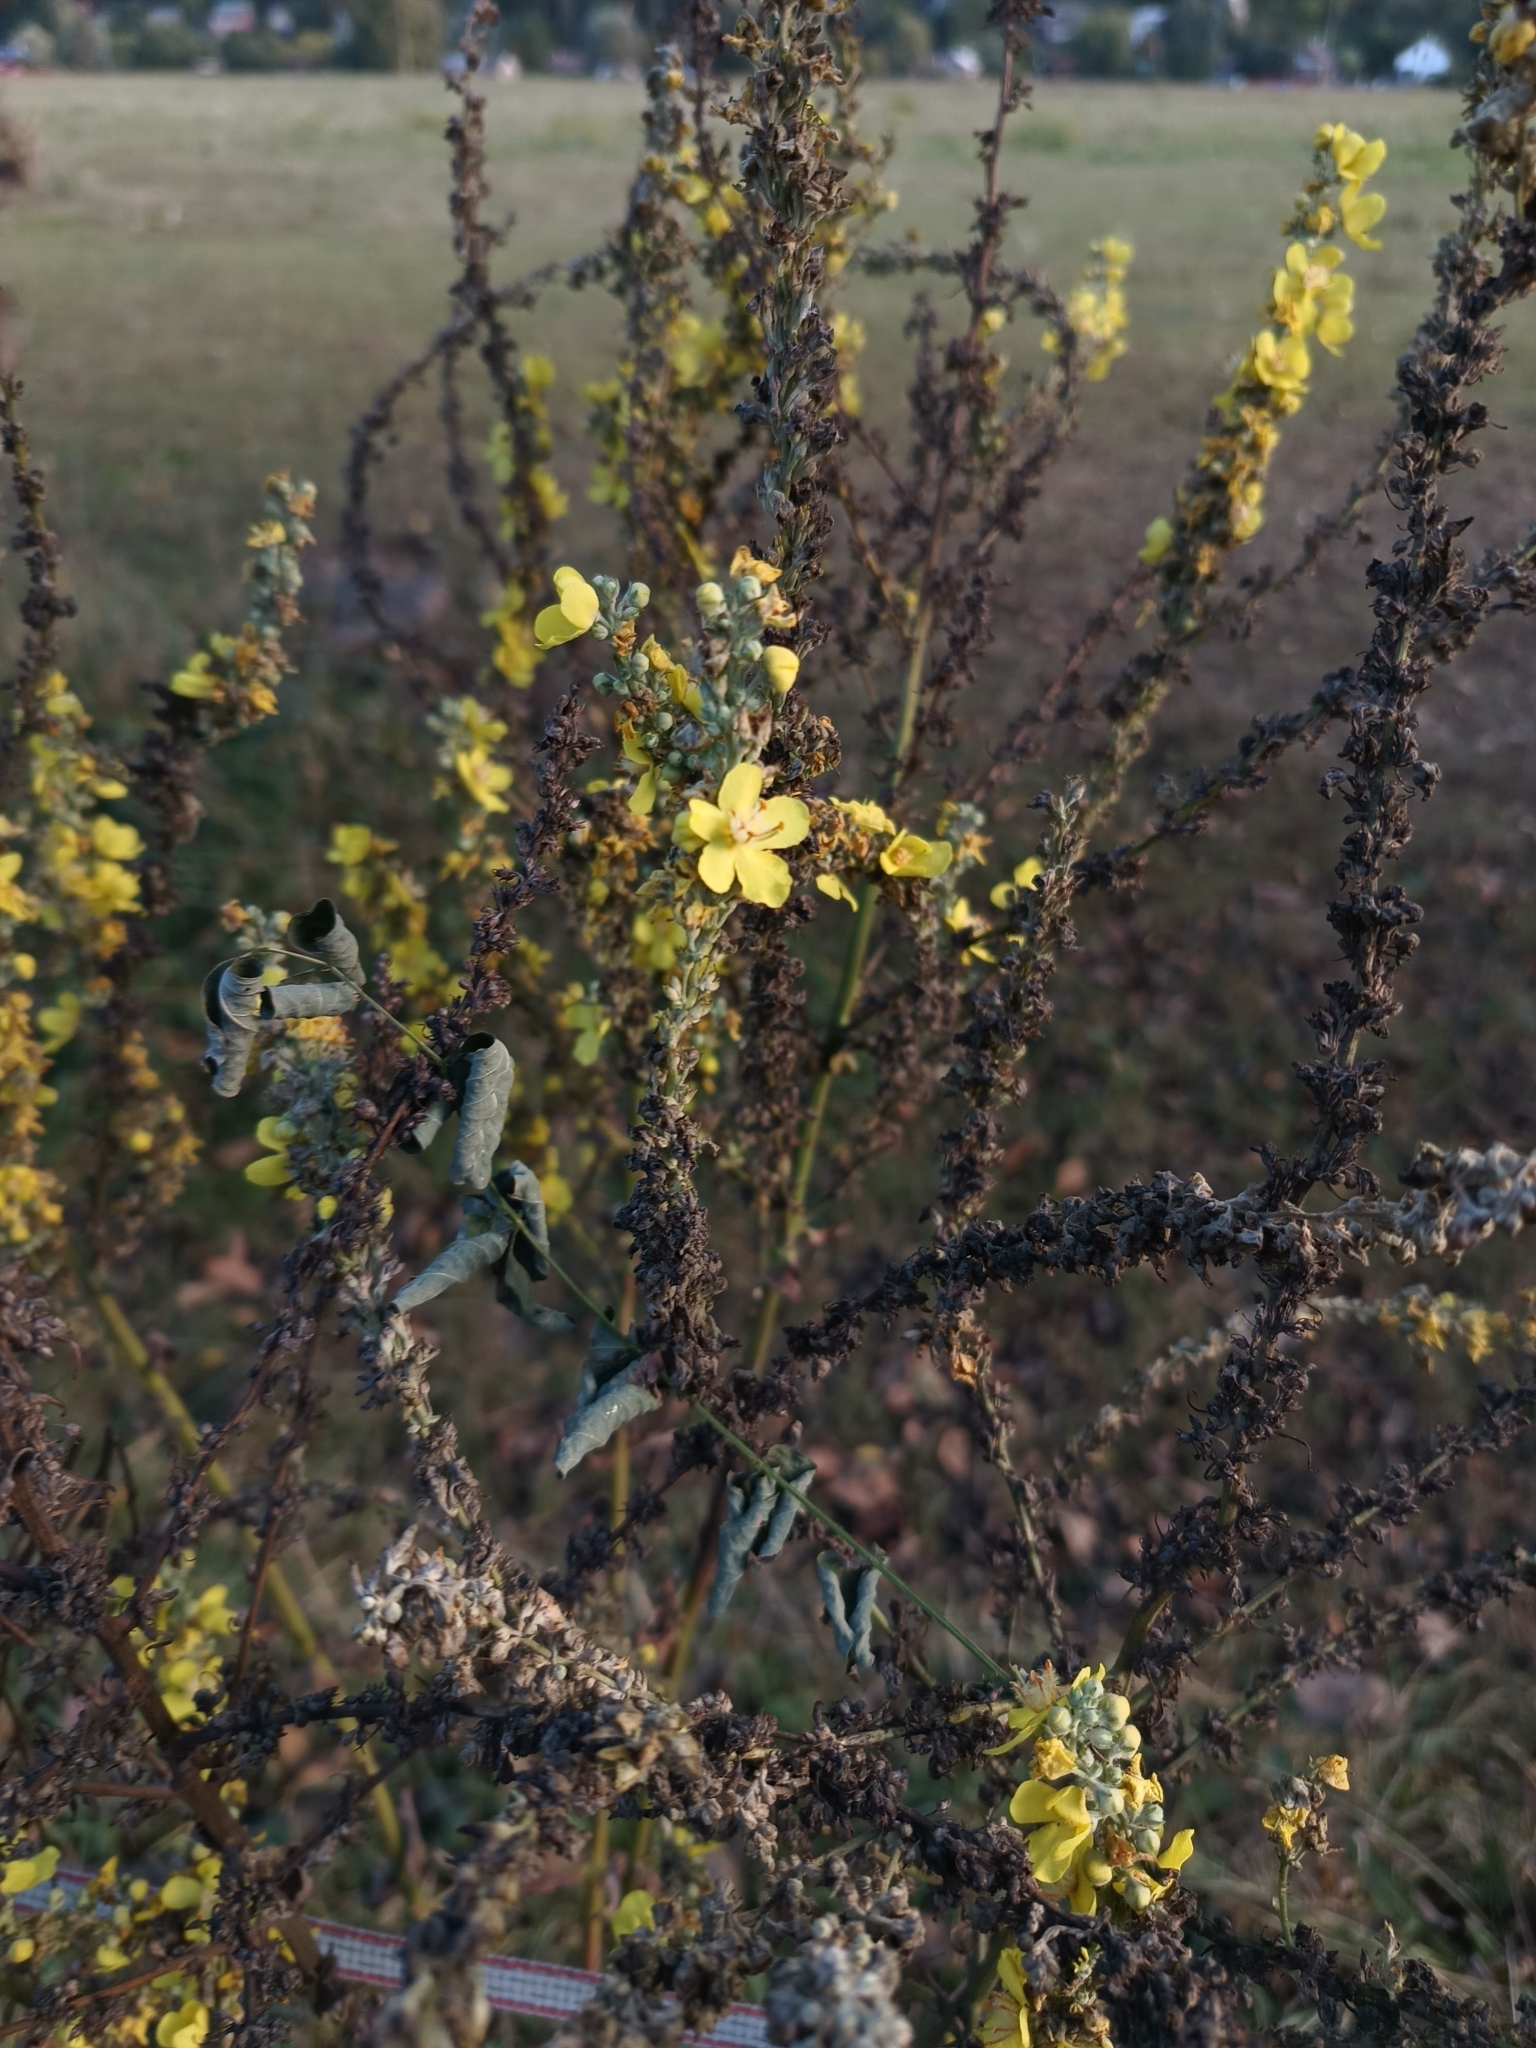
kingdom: Plantae
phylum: Tracheophyta
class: Magnoliopsida
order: Lamiales
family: Scrophulariaceae
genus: Verbascum
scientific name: Verbascum lychnitis
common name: White mullein
